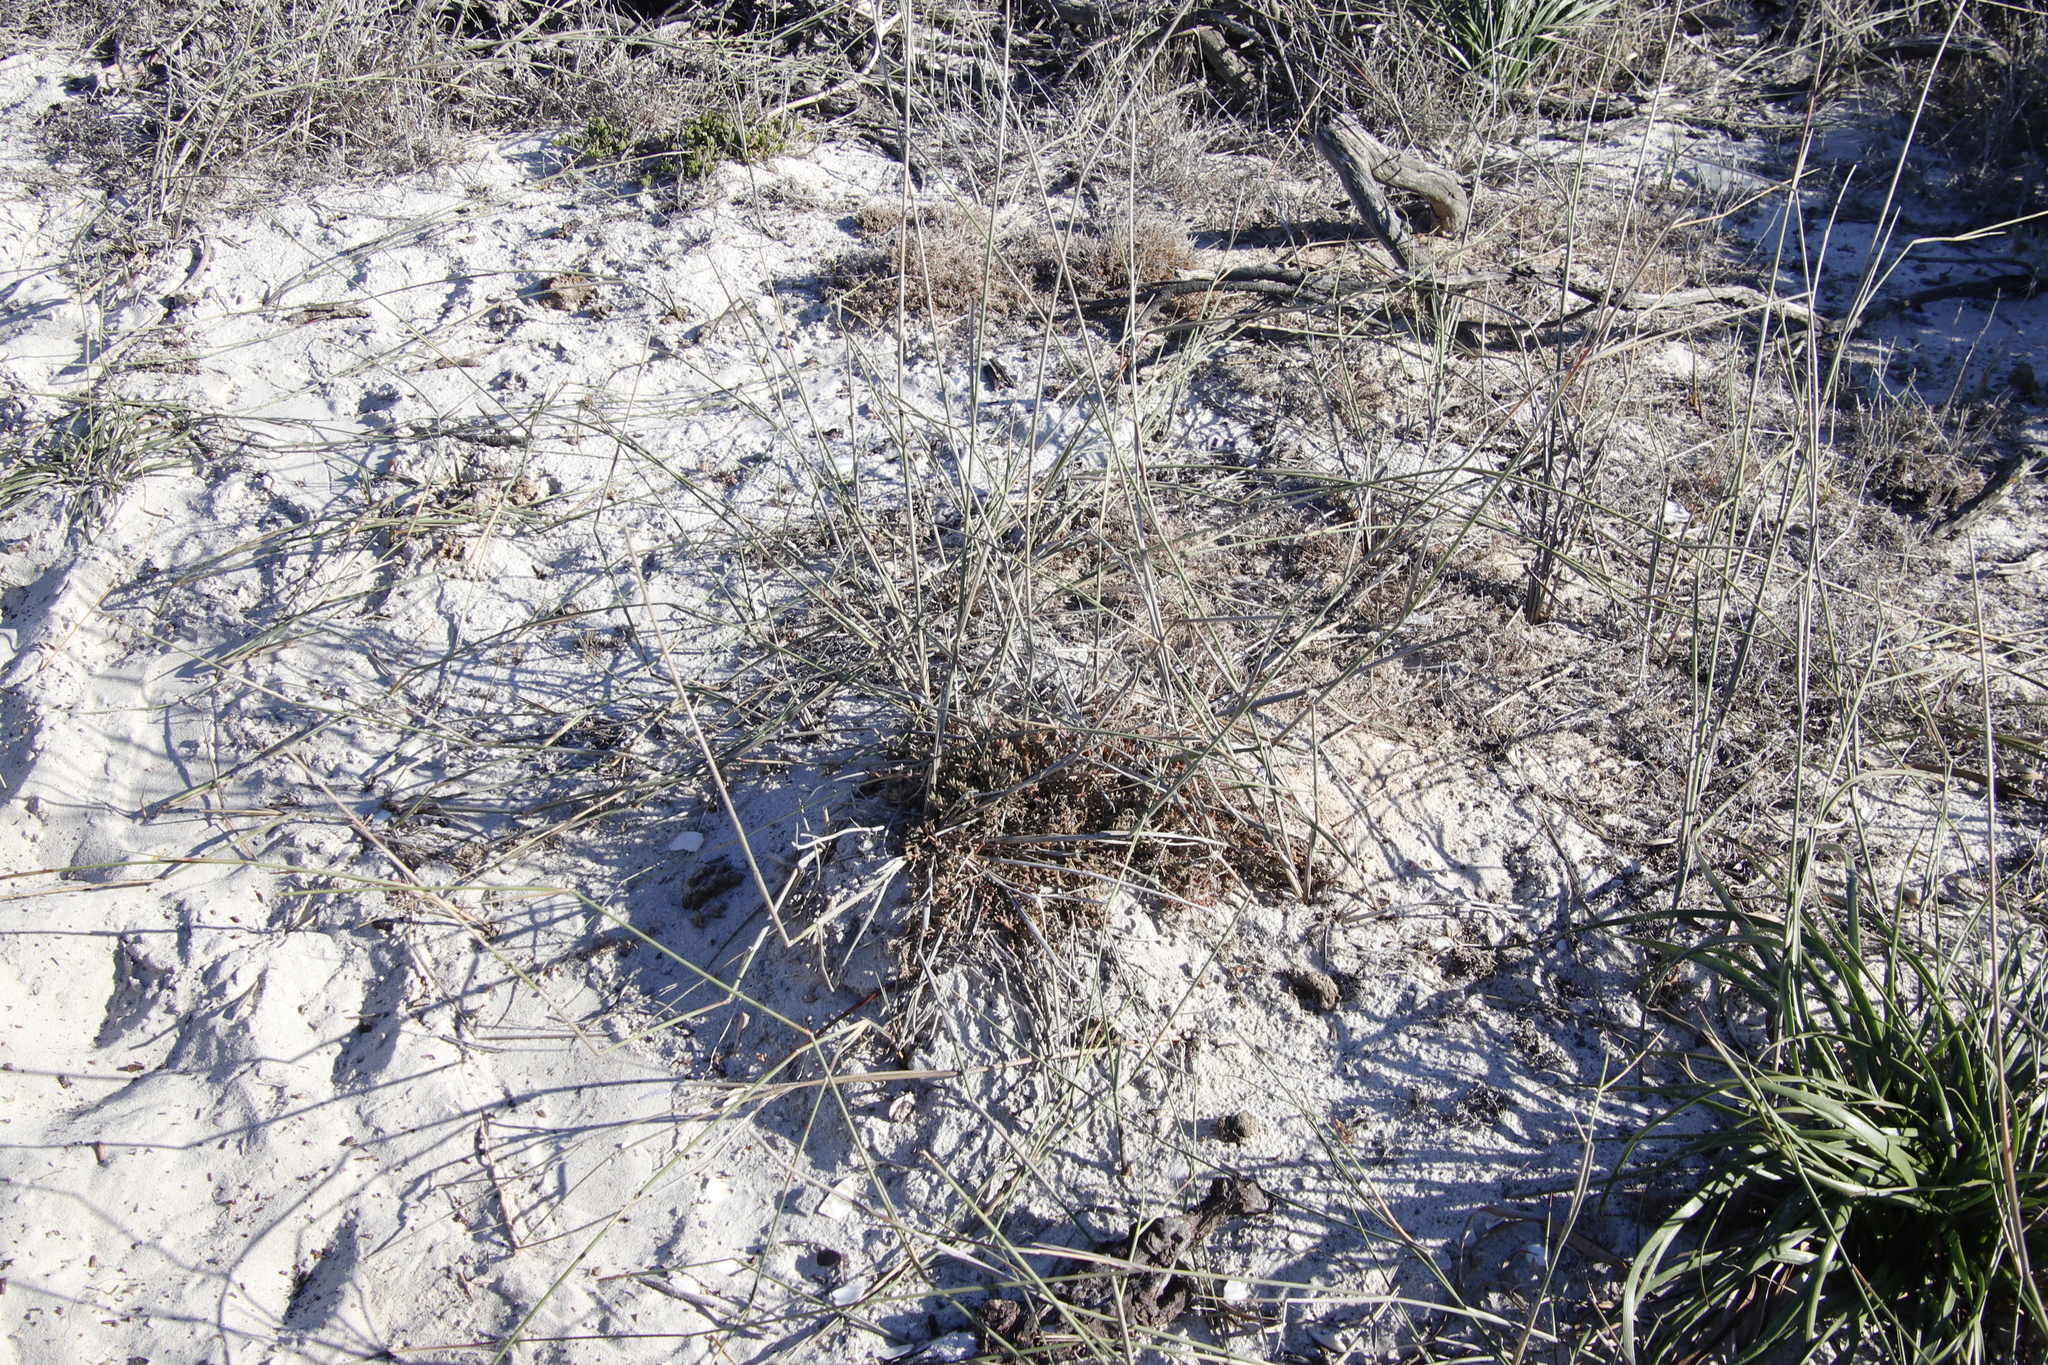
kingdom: Plantae
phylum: Tracheophyta
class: Magnoliopsida
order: Caryophyllales
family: Aizoaceae
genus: Mesembryanthemum
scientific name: Mesembryanthemum canaliculatum
